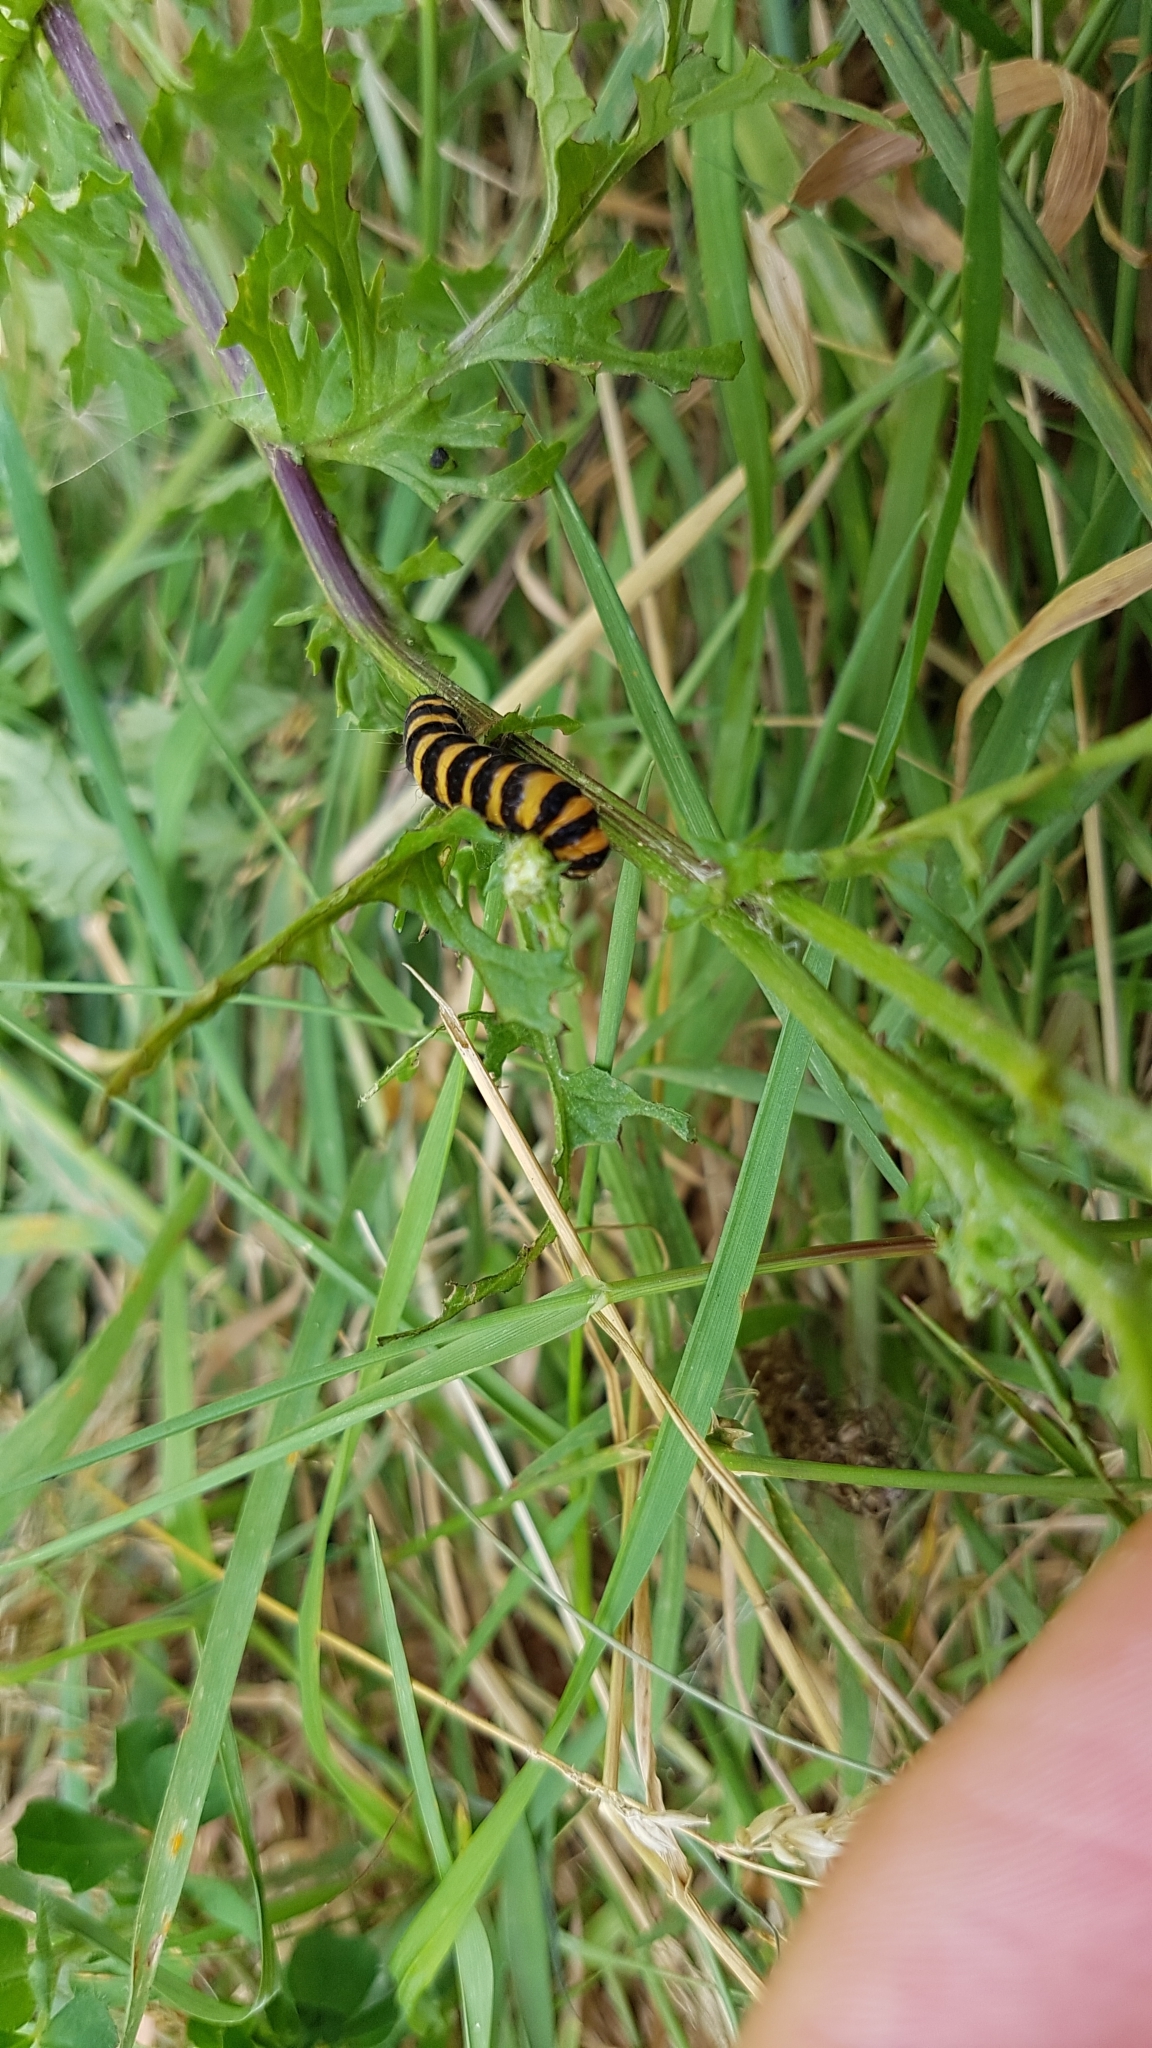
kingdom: Animalia
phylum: Arthropoda
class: Insecta
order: Lepidoptera
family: Erebidae
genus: Tyria
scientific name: Tyria jacobaeae
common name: Cinnabar
